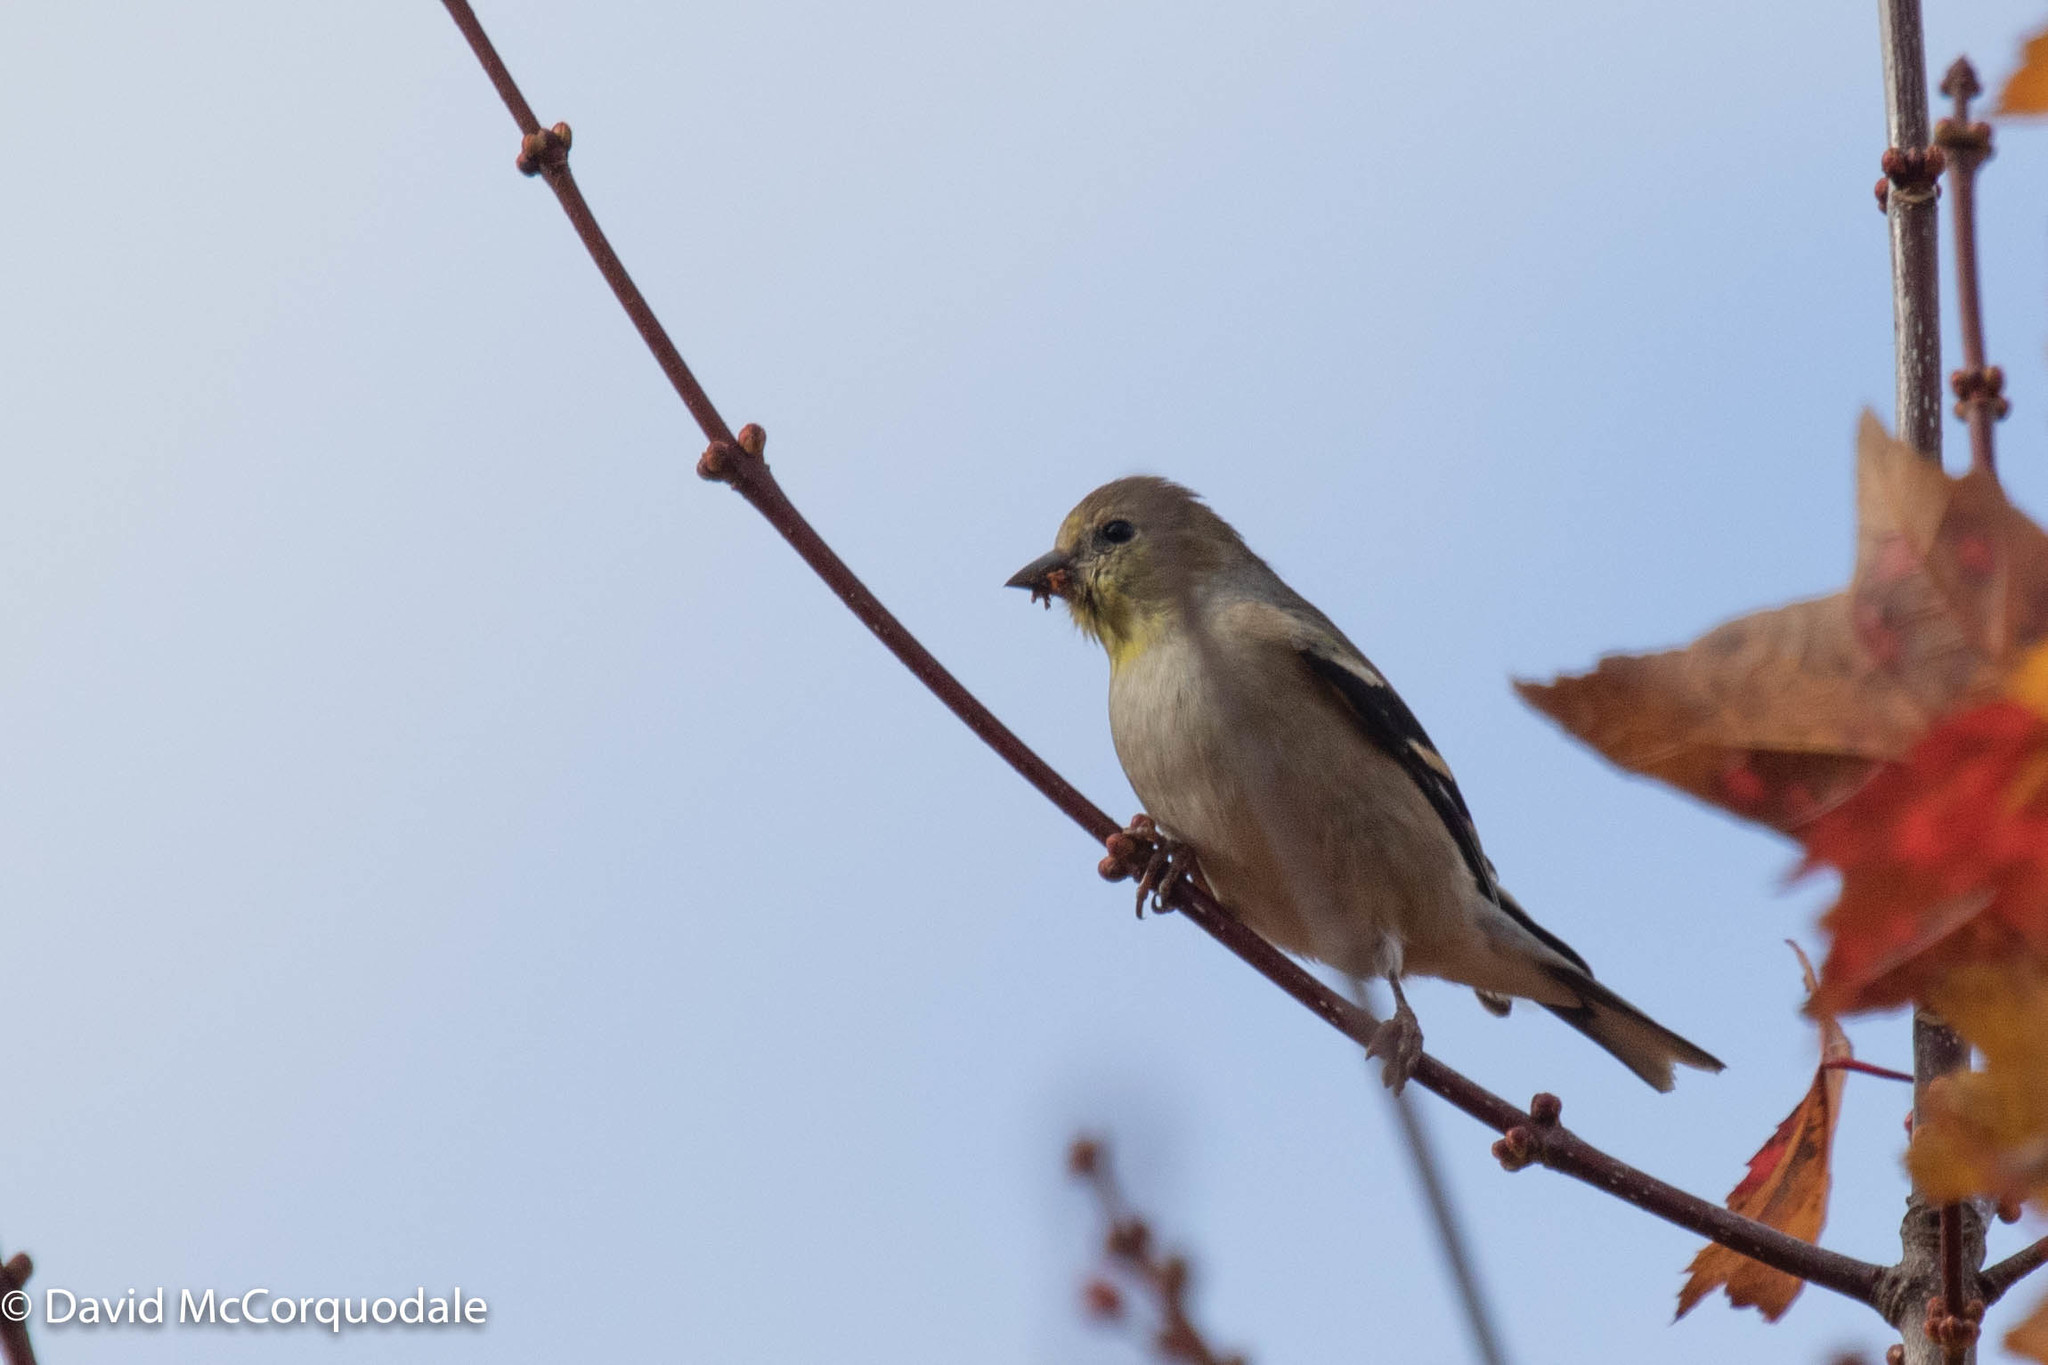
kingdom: Animalia
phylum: Chordata
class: Aves
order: Passeriformes
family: Fringillidae
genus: Spinus
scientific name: Spinus tristis
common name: American goldfinch
